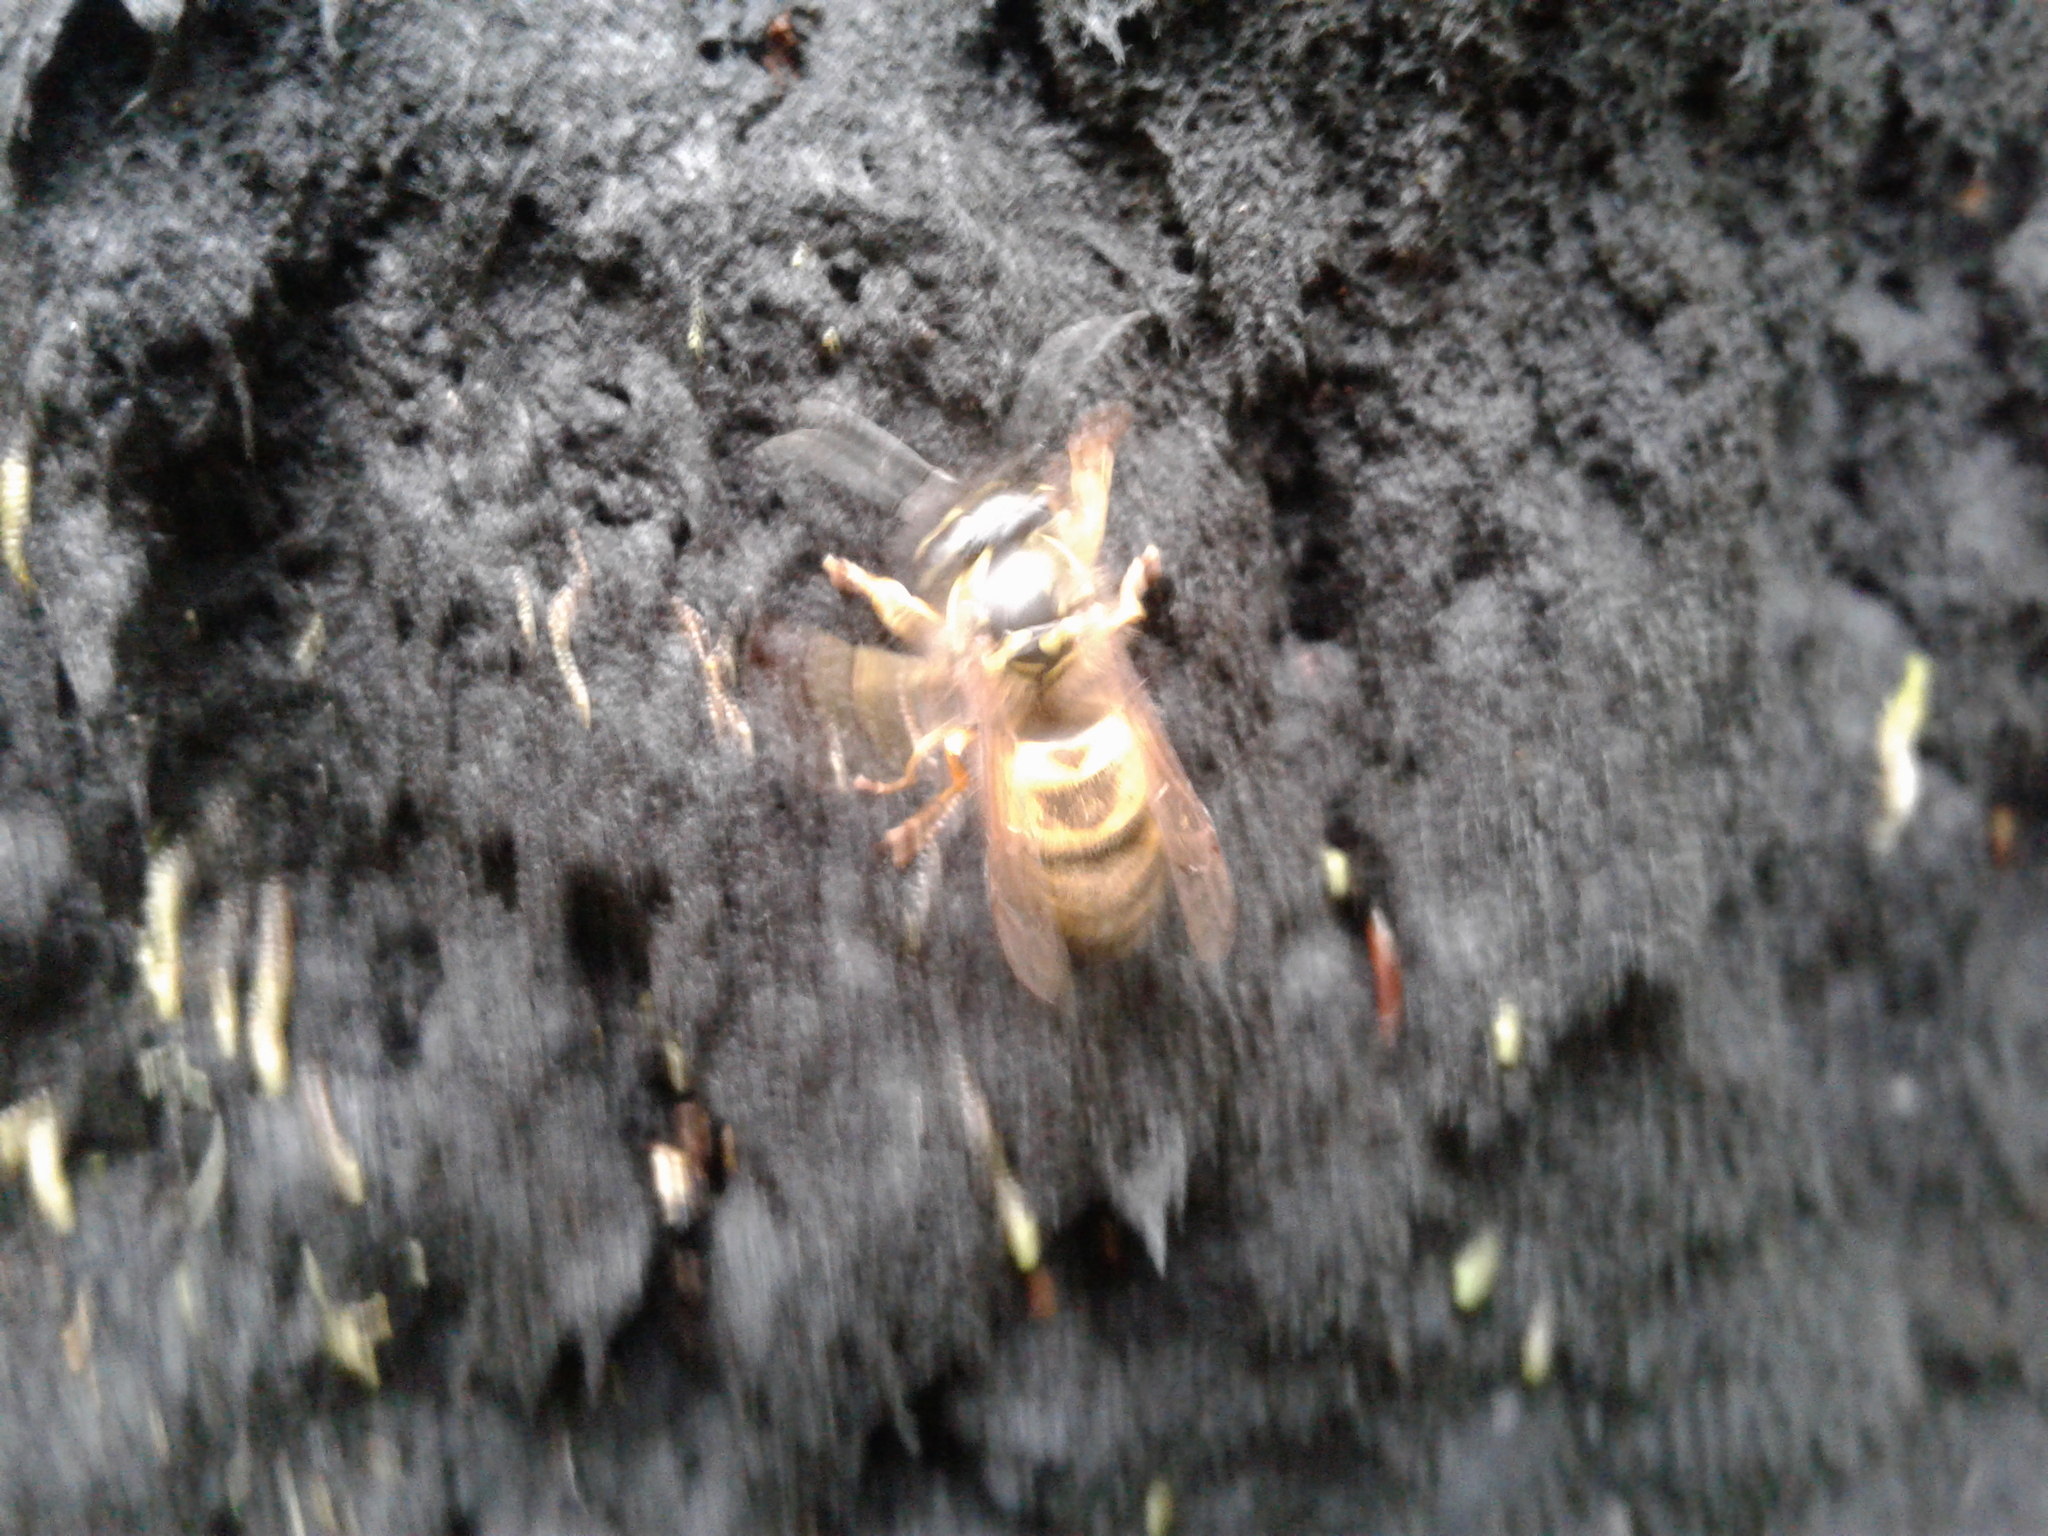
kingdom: Animalia
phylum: Arthropoda
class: Insecta
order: Hymenoptera
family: Vespidae
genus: Vespula
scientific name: Vespula vulgaris
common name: Common wasp
